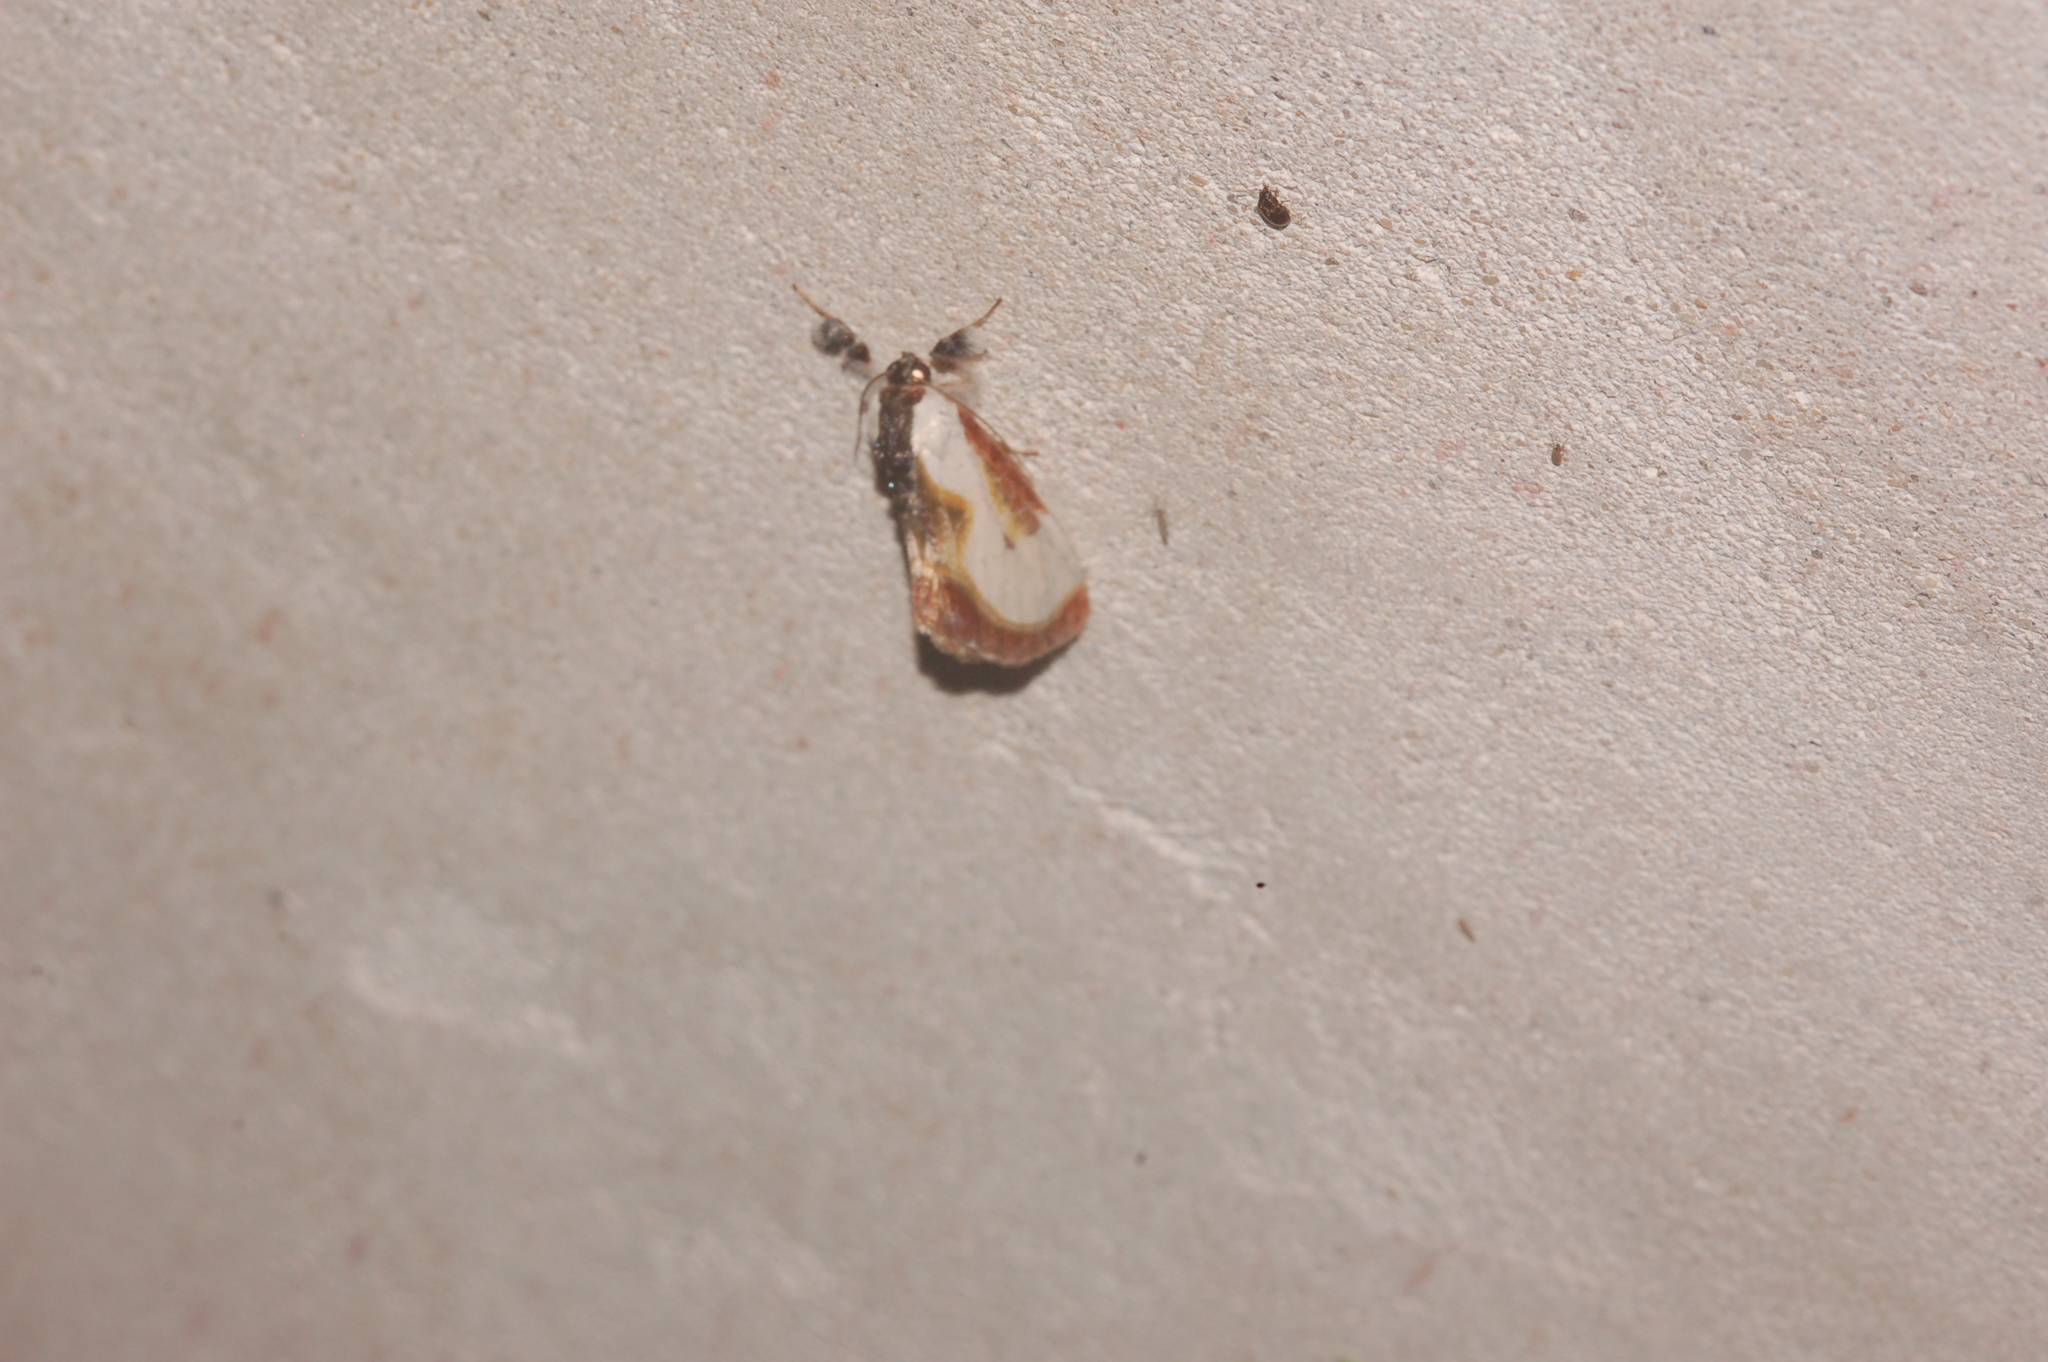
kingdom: Animalia
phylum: Arthropoda
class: Insecta
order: Lepidoptera
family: Noctuidae
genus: Eudryas
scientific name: Eudryas grata
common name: Beautiful wood-nymph
